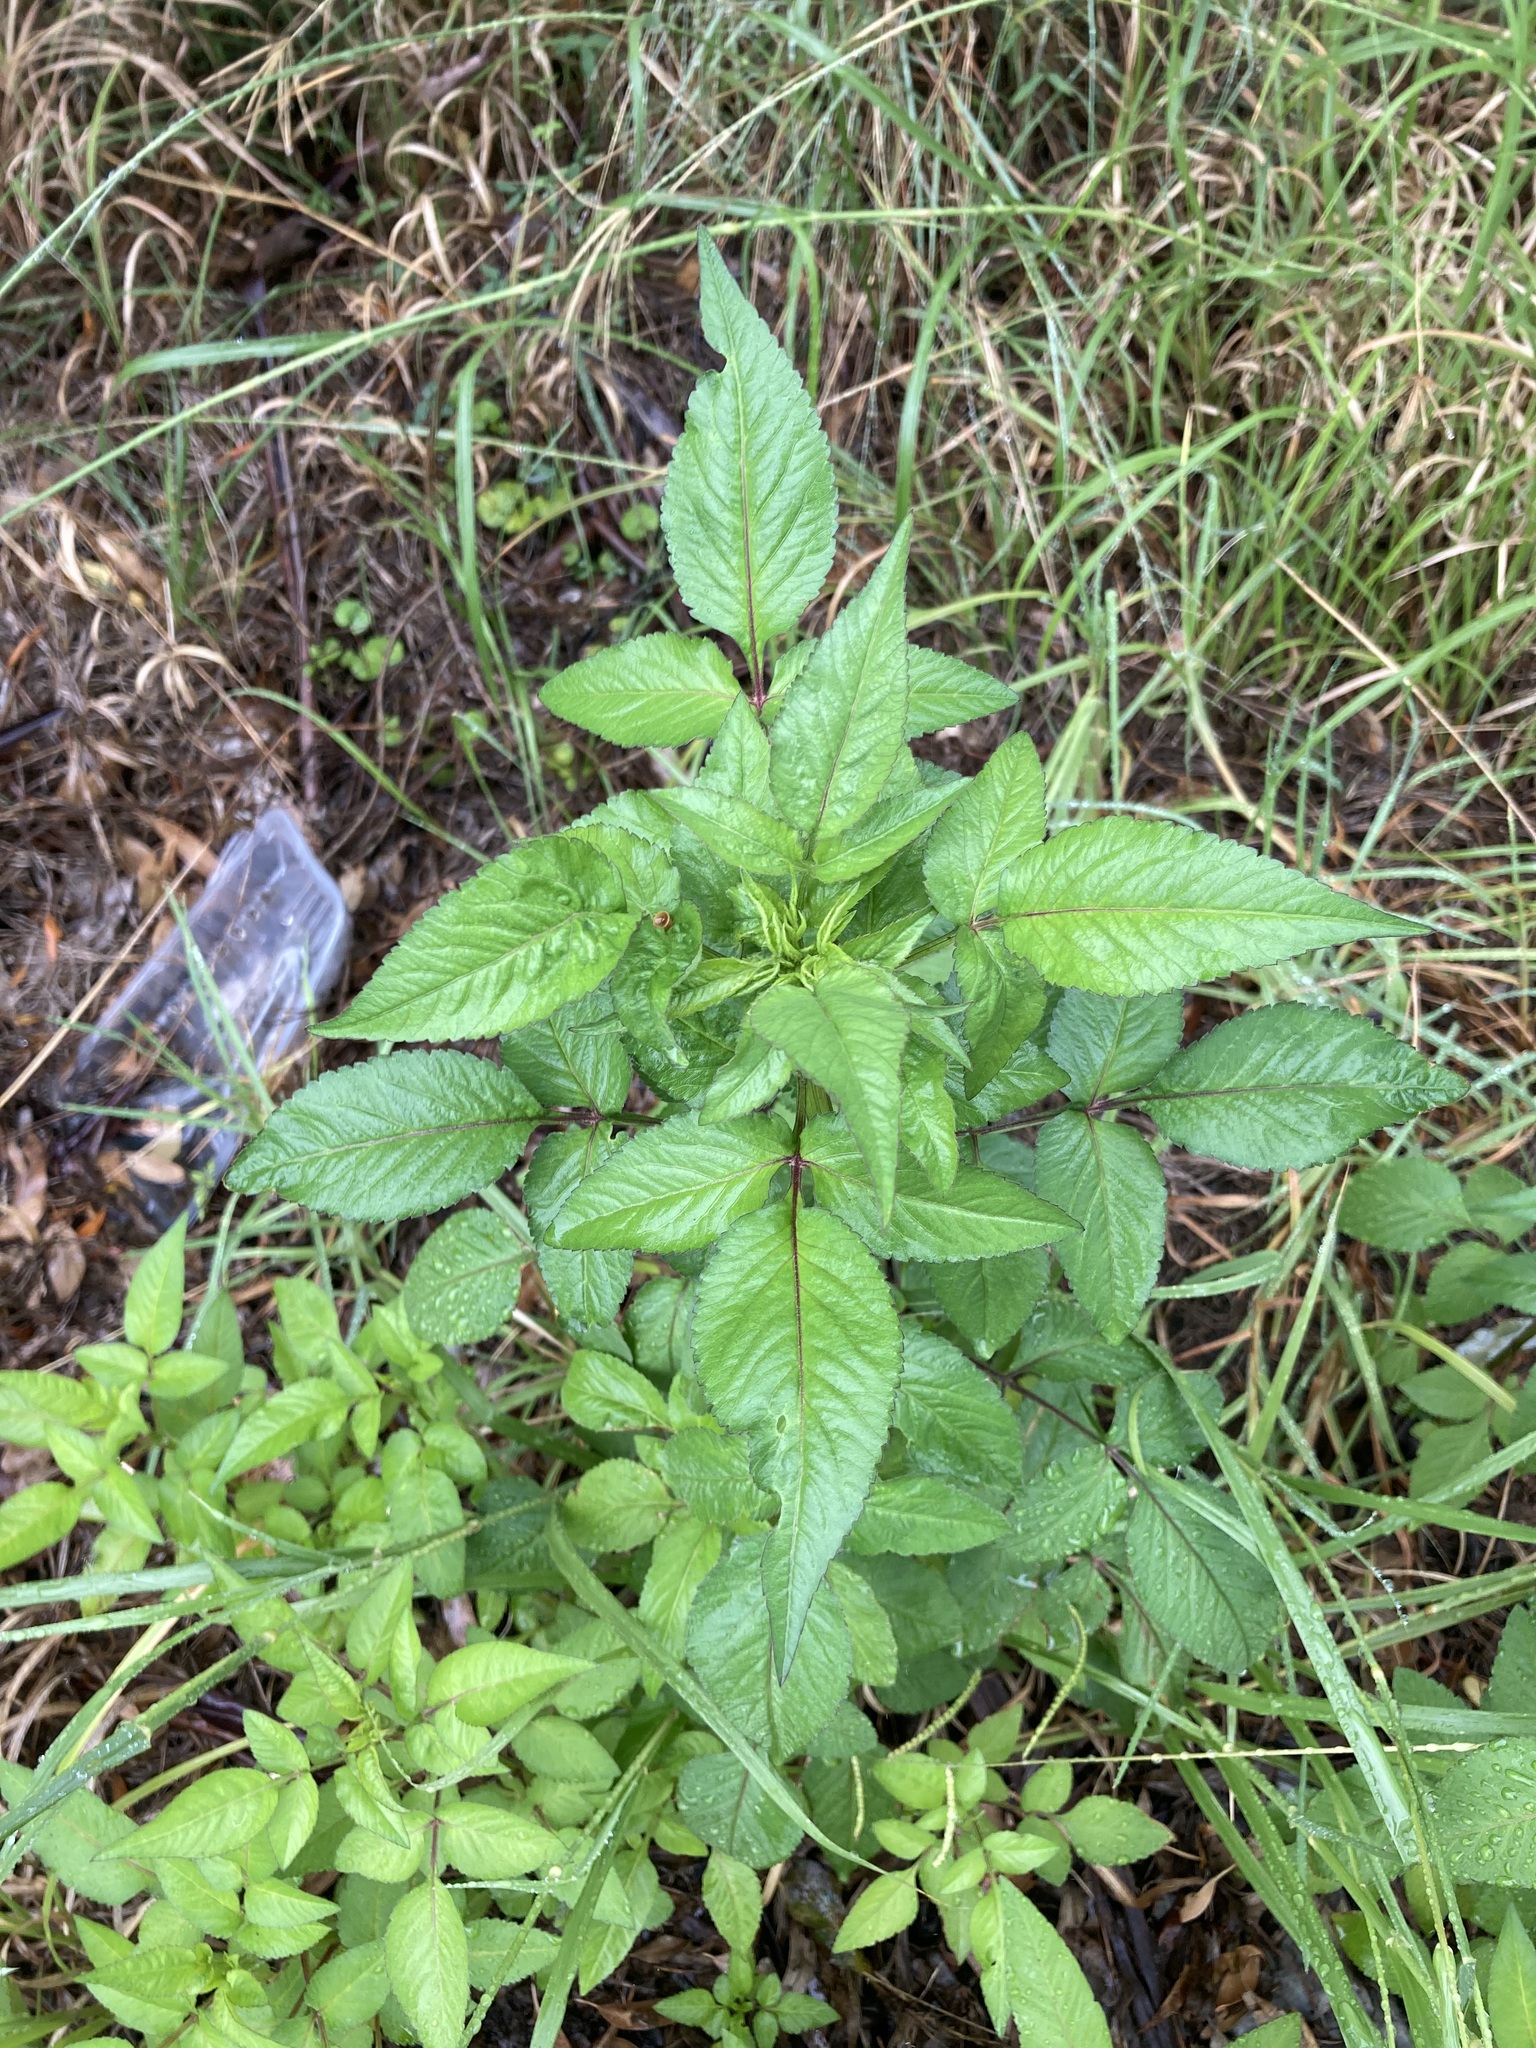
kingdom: Plantae
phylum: Tracheophyta
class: Magnoliopsida
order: Asterales
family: Asteraceae
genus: Bidens
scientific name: Bidens pilosa
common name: Black-jack
